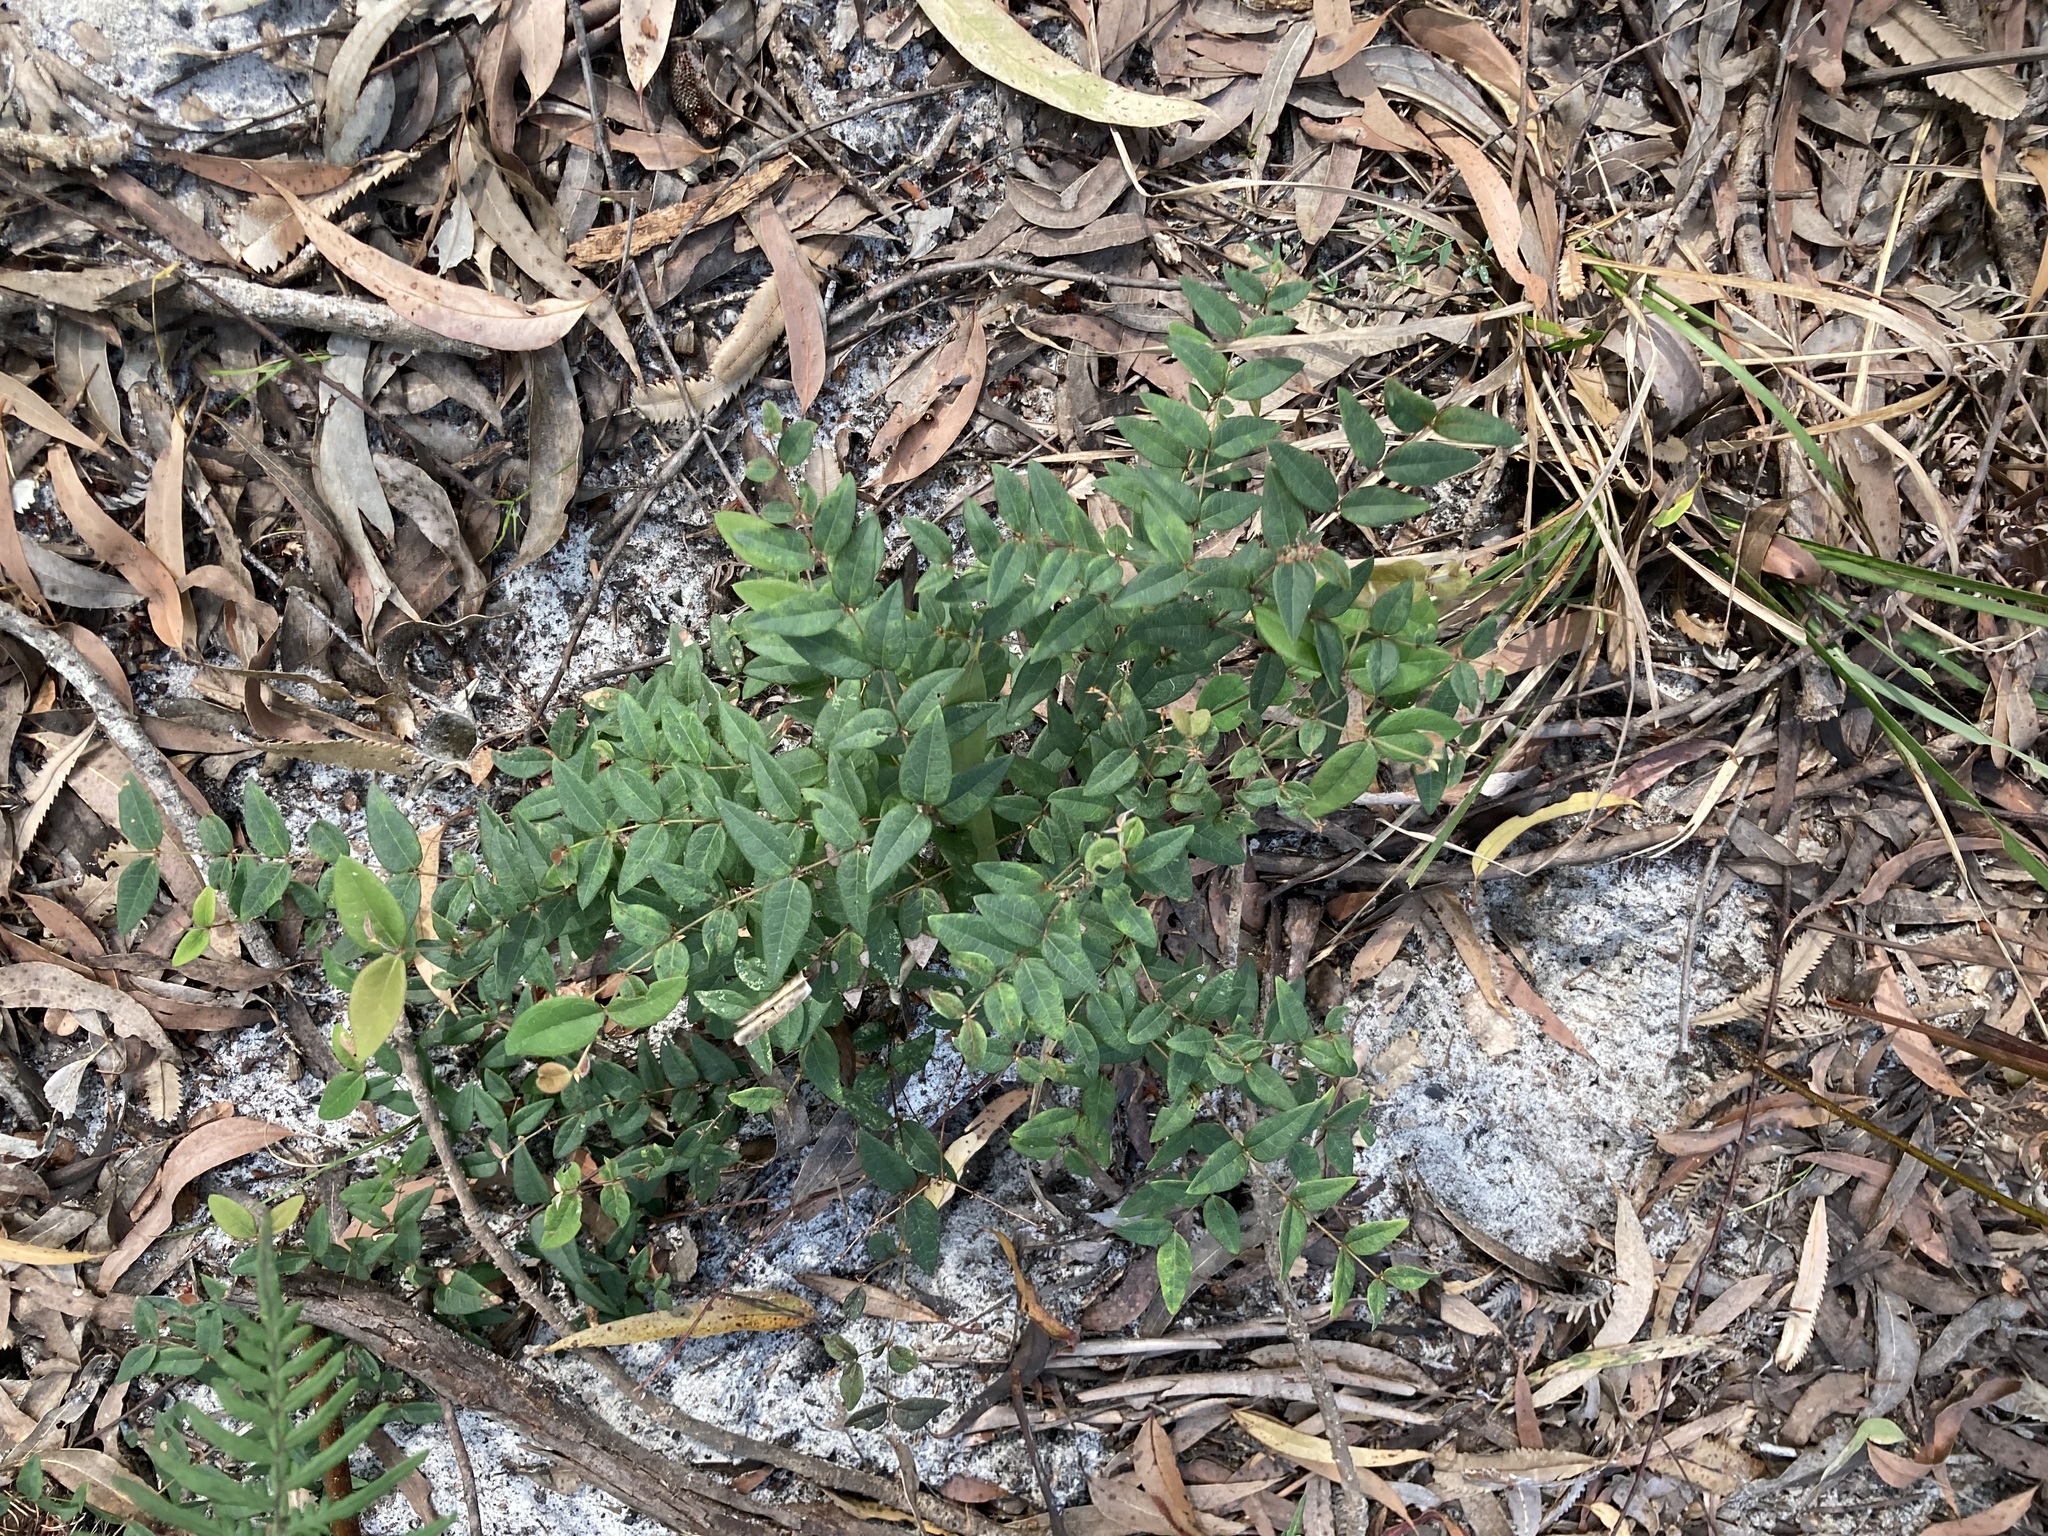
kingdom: Plantae
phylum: Tracheophyta
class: Magnoliopsida
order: Fabales
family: Fabaceae
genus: Platylobium
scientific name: Platylobium formosum
